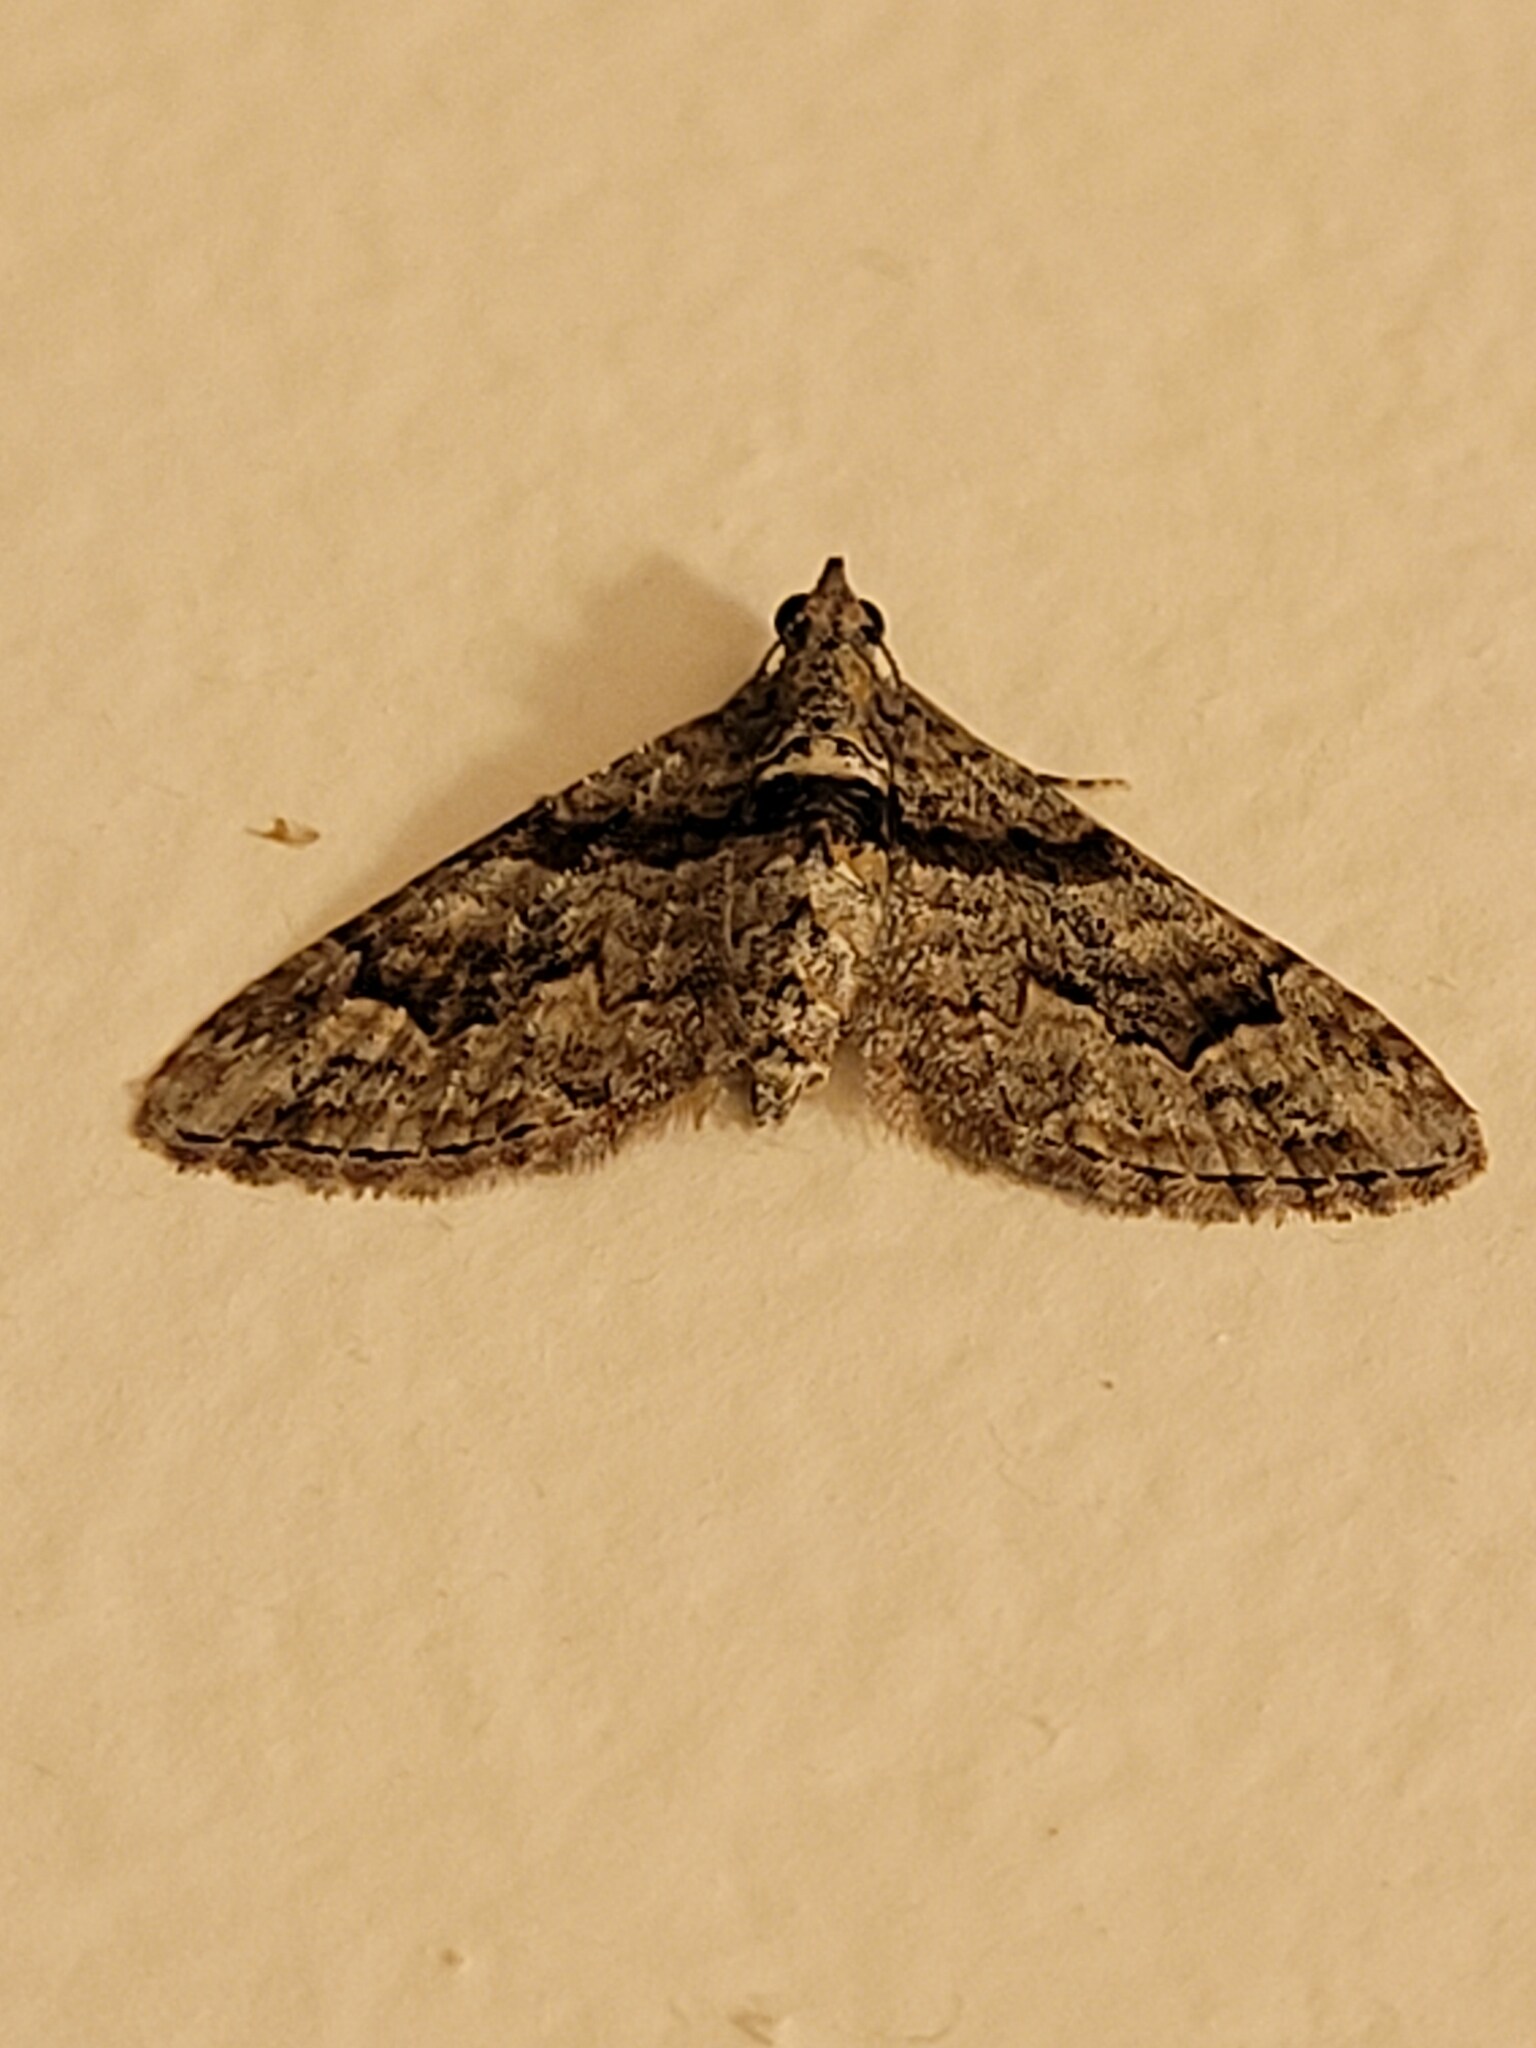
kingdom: Animalia
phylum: Arthropoda
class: Insecta
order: Lepidoptera
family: Geometridae
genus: Phrissogonus
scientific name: Phrissogonus laticostata
